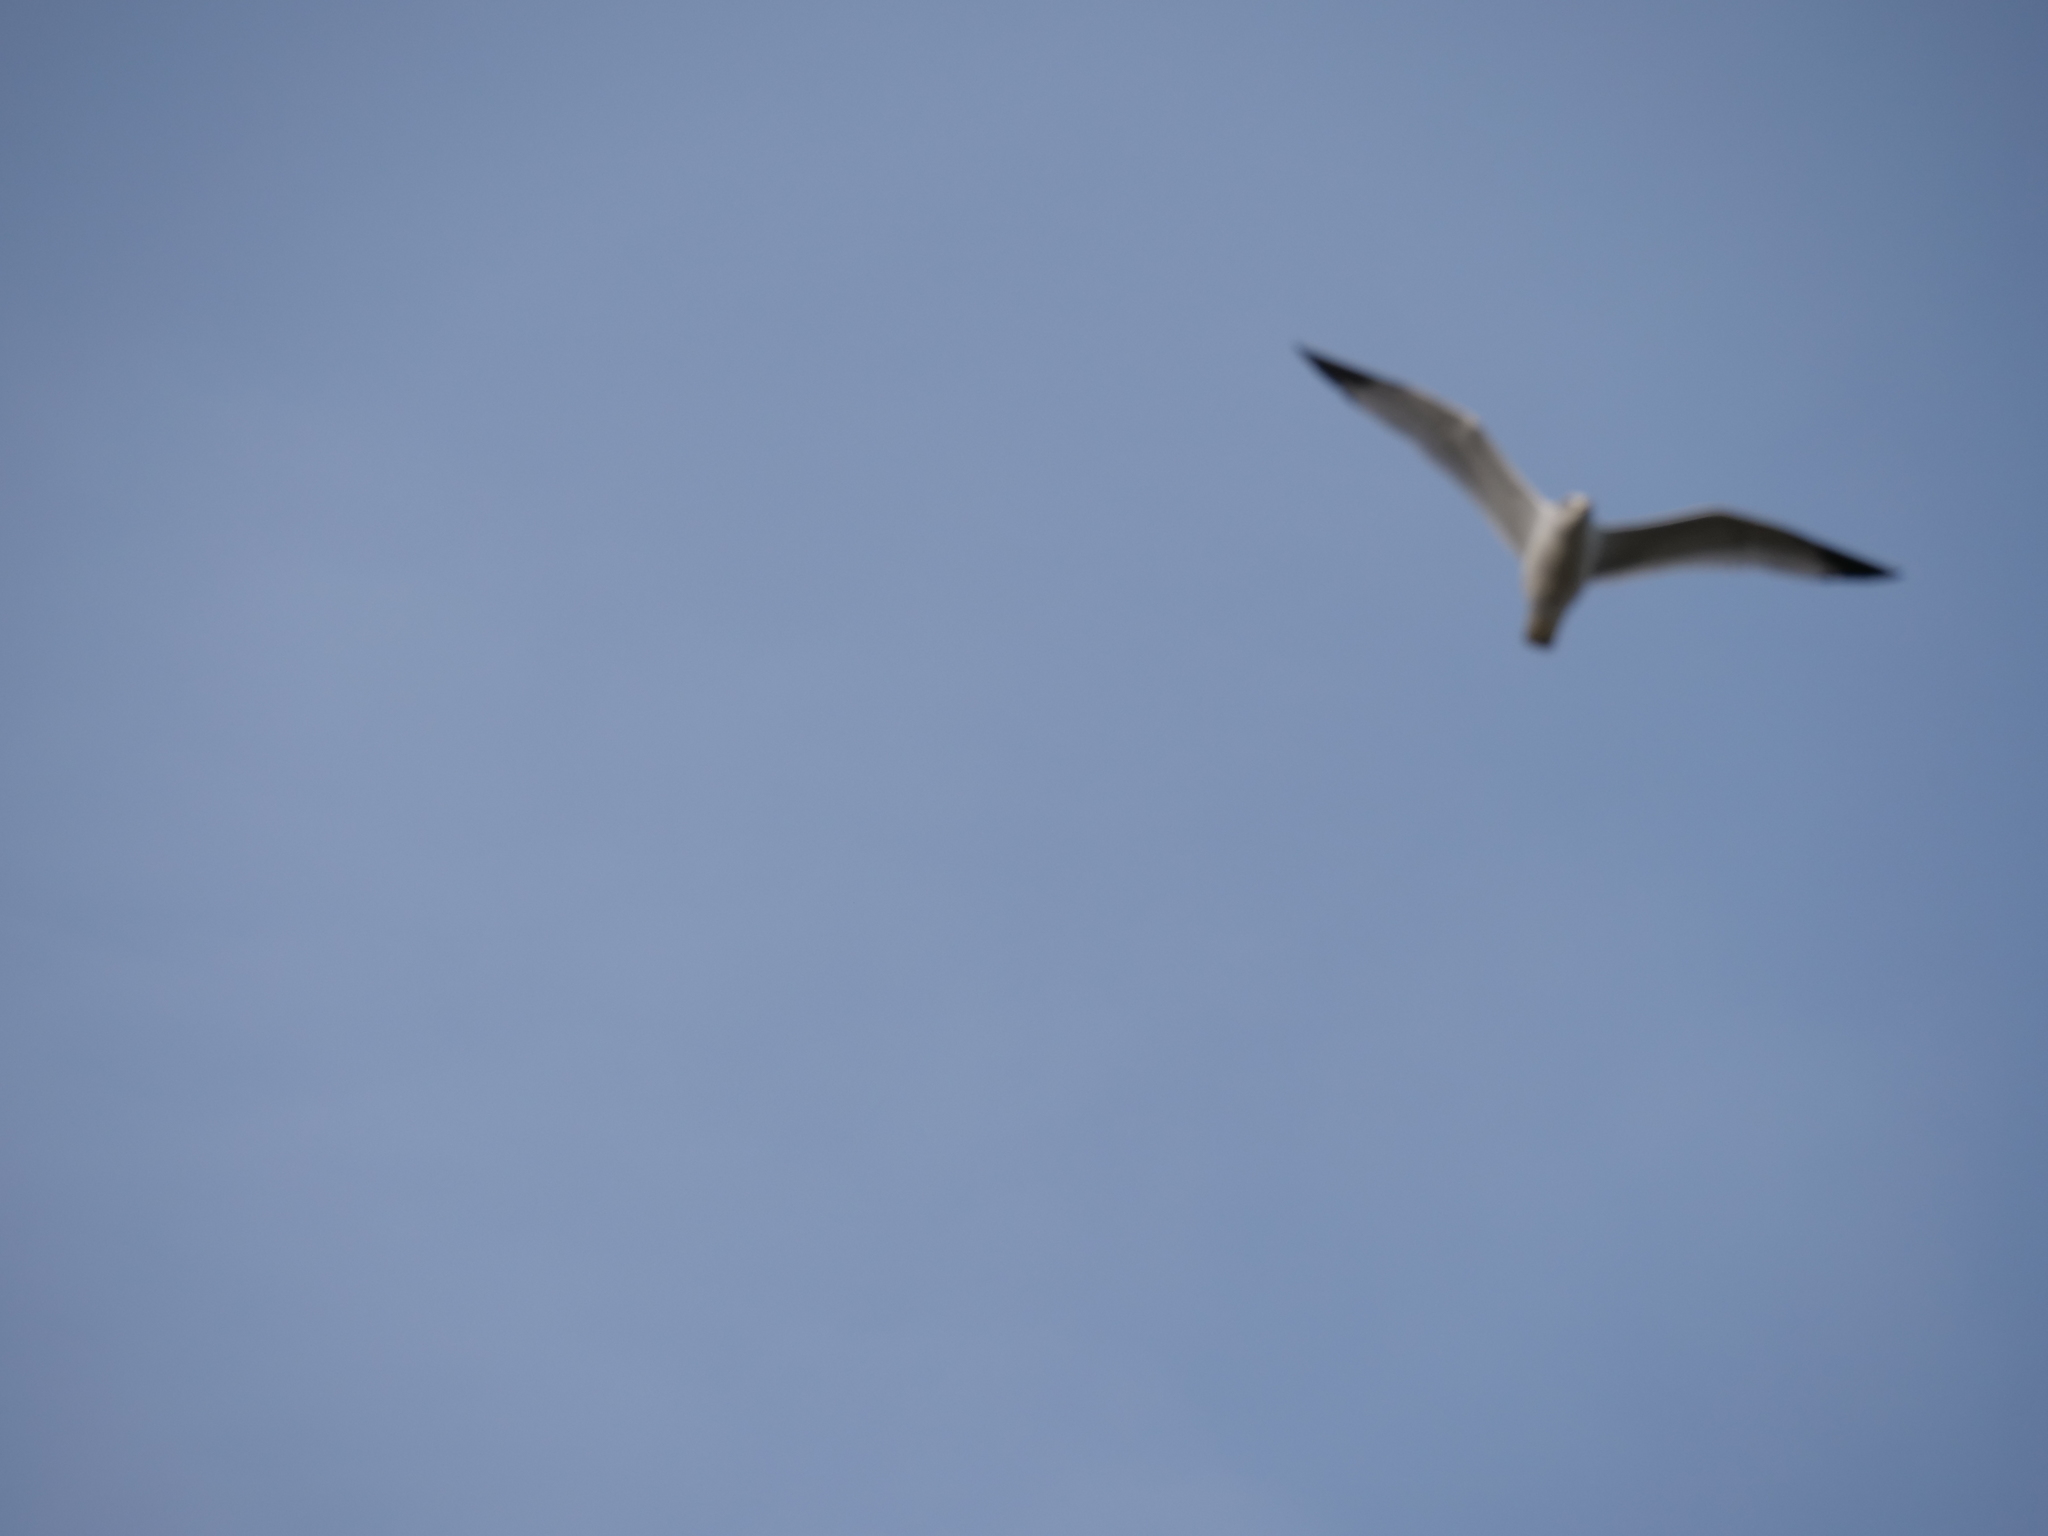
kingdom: Animalia
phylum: Chordata
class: Aves
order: Charadriiformes
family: Laridae
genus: Larus
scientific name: Larus brachyrhynchus
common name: Short-billed gull
